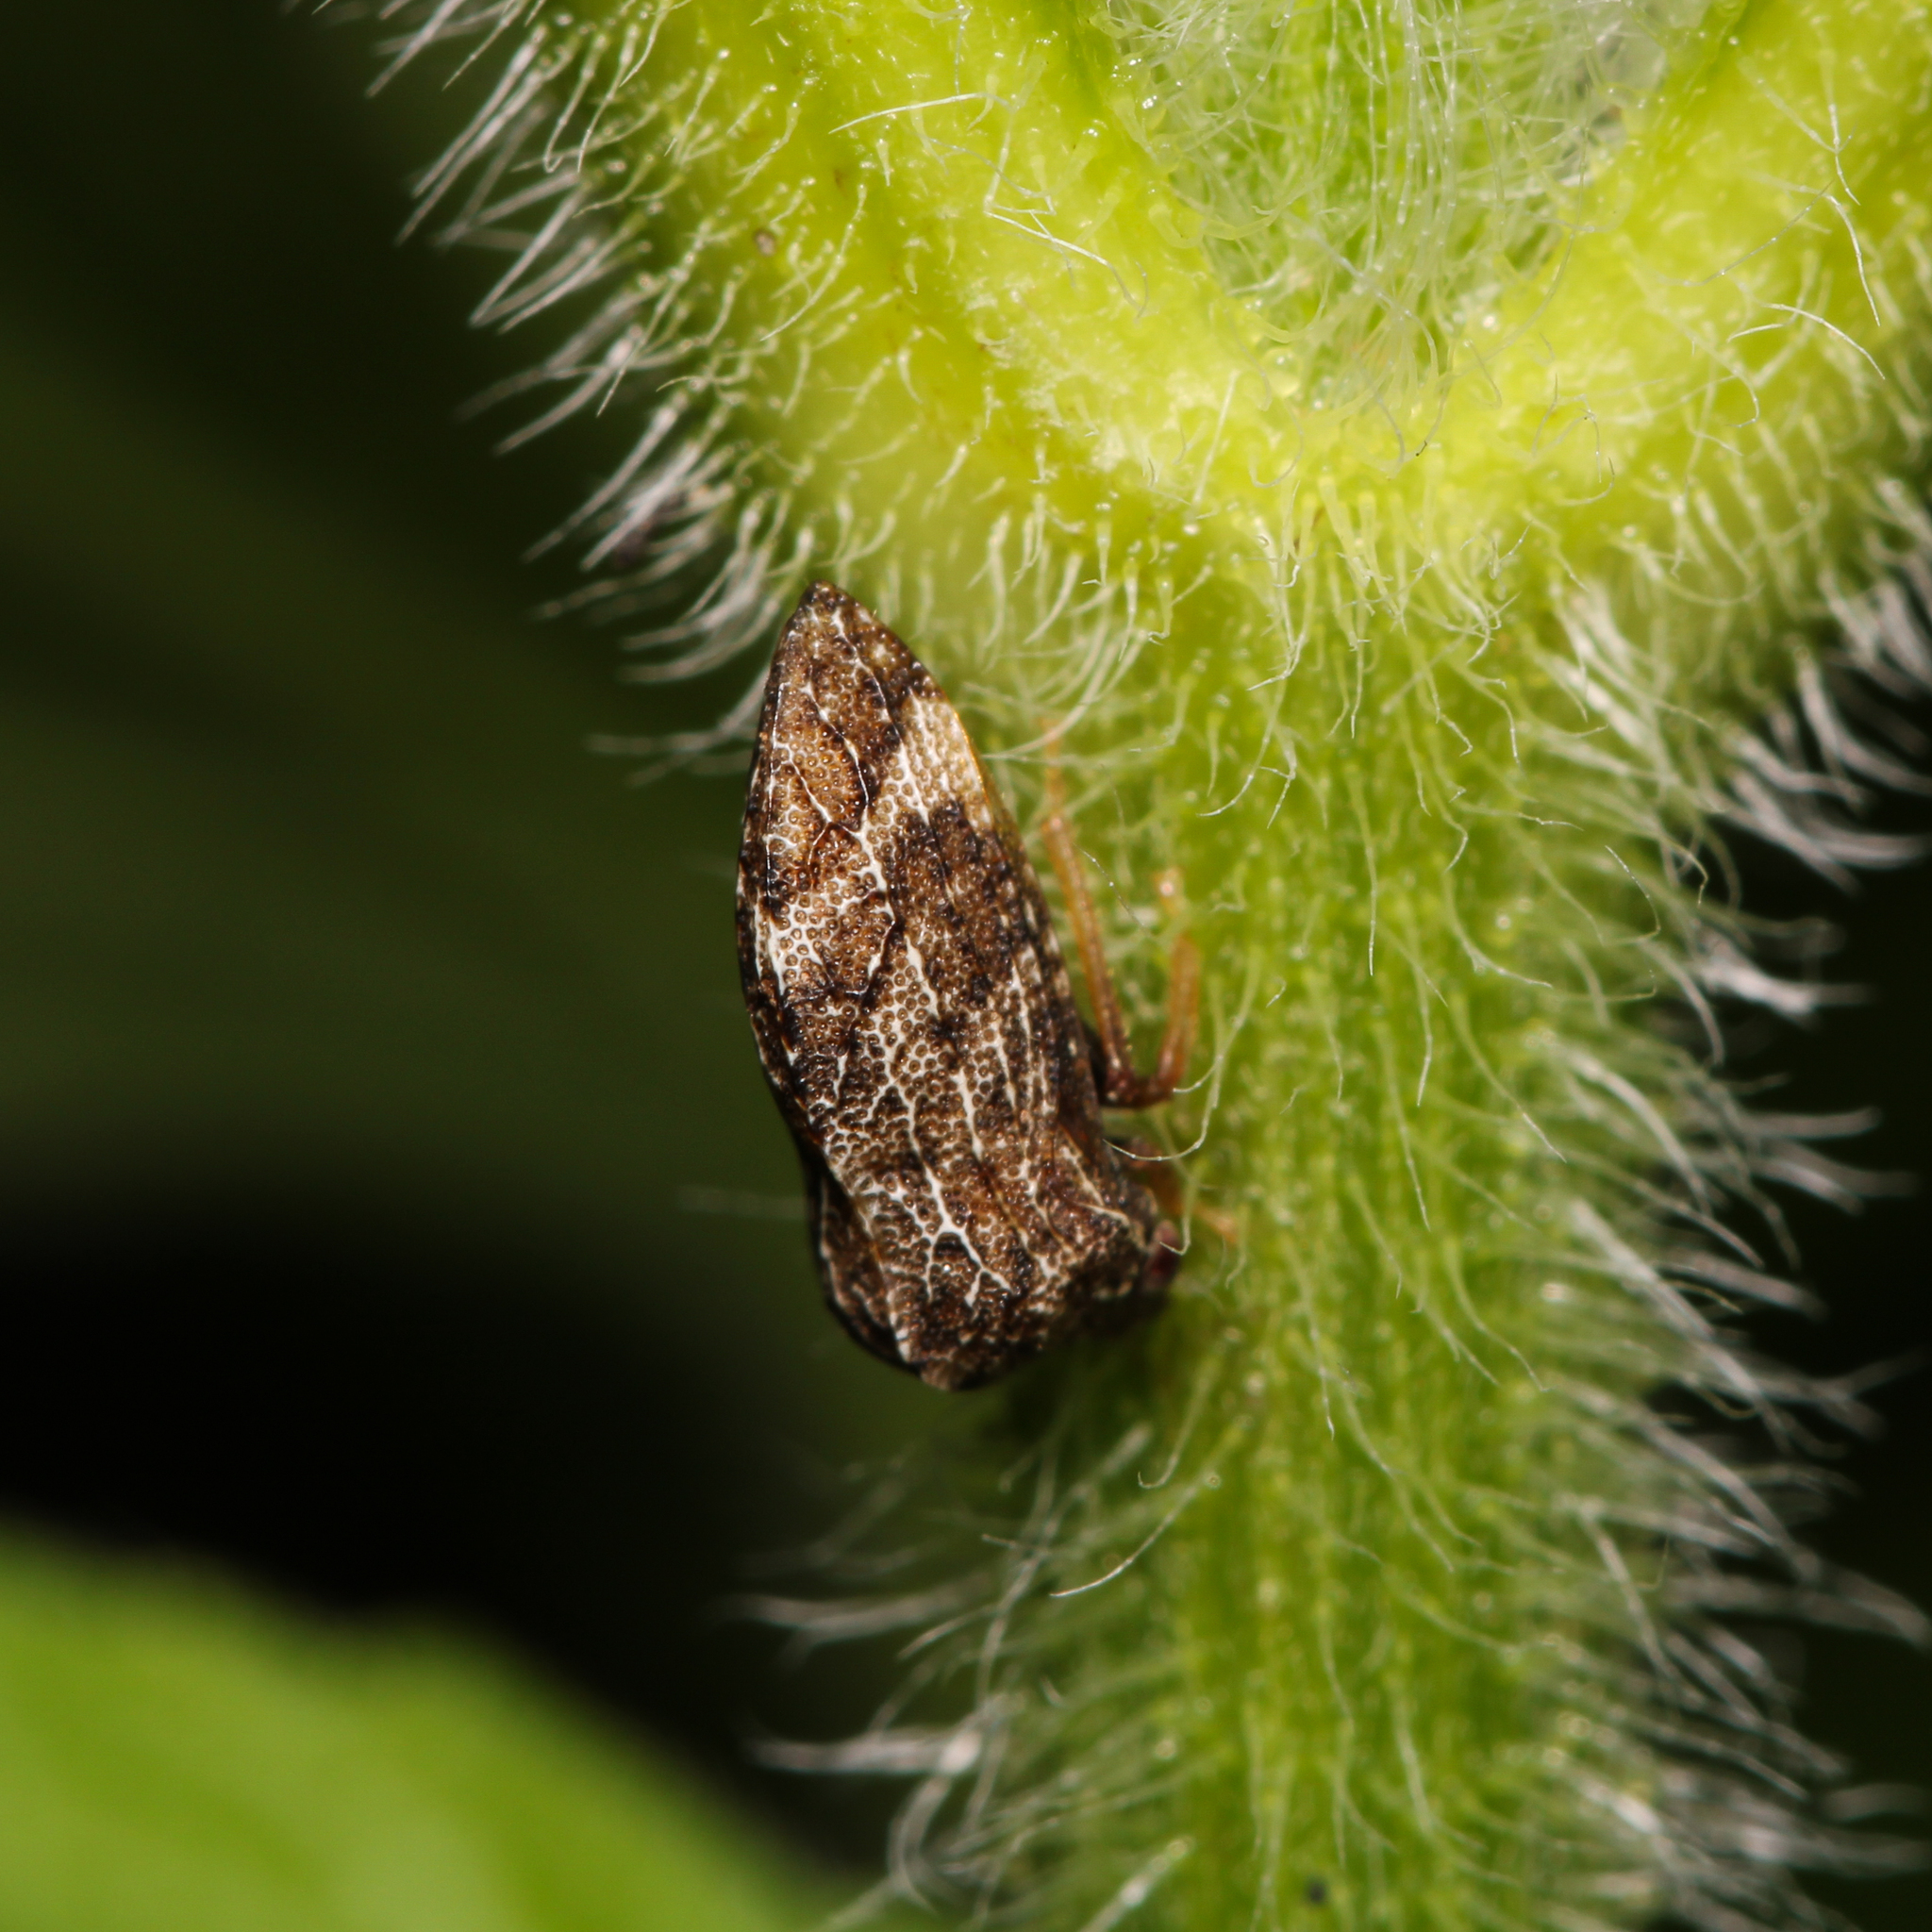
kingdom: Animalia
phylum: Arthropoda
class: Insecta
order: Hemiptera
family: Membracidae
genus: Publilia
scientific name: Publilia concava
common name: Aster treehopper
